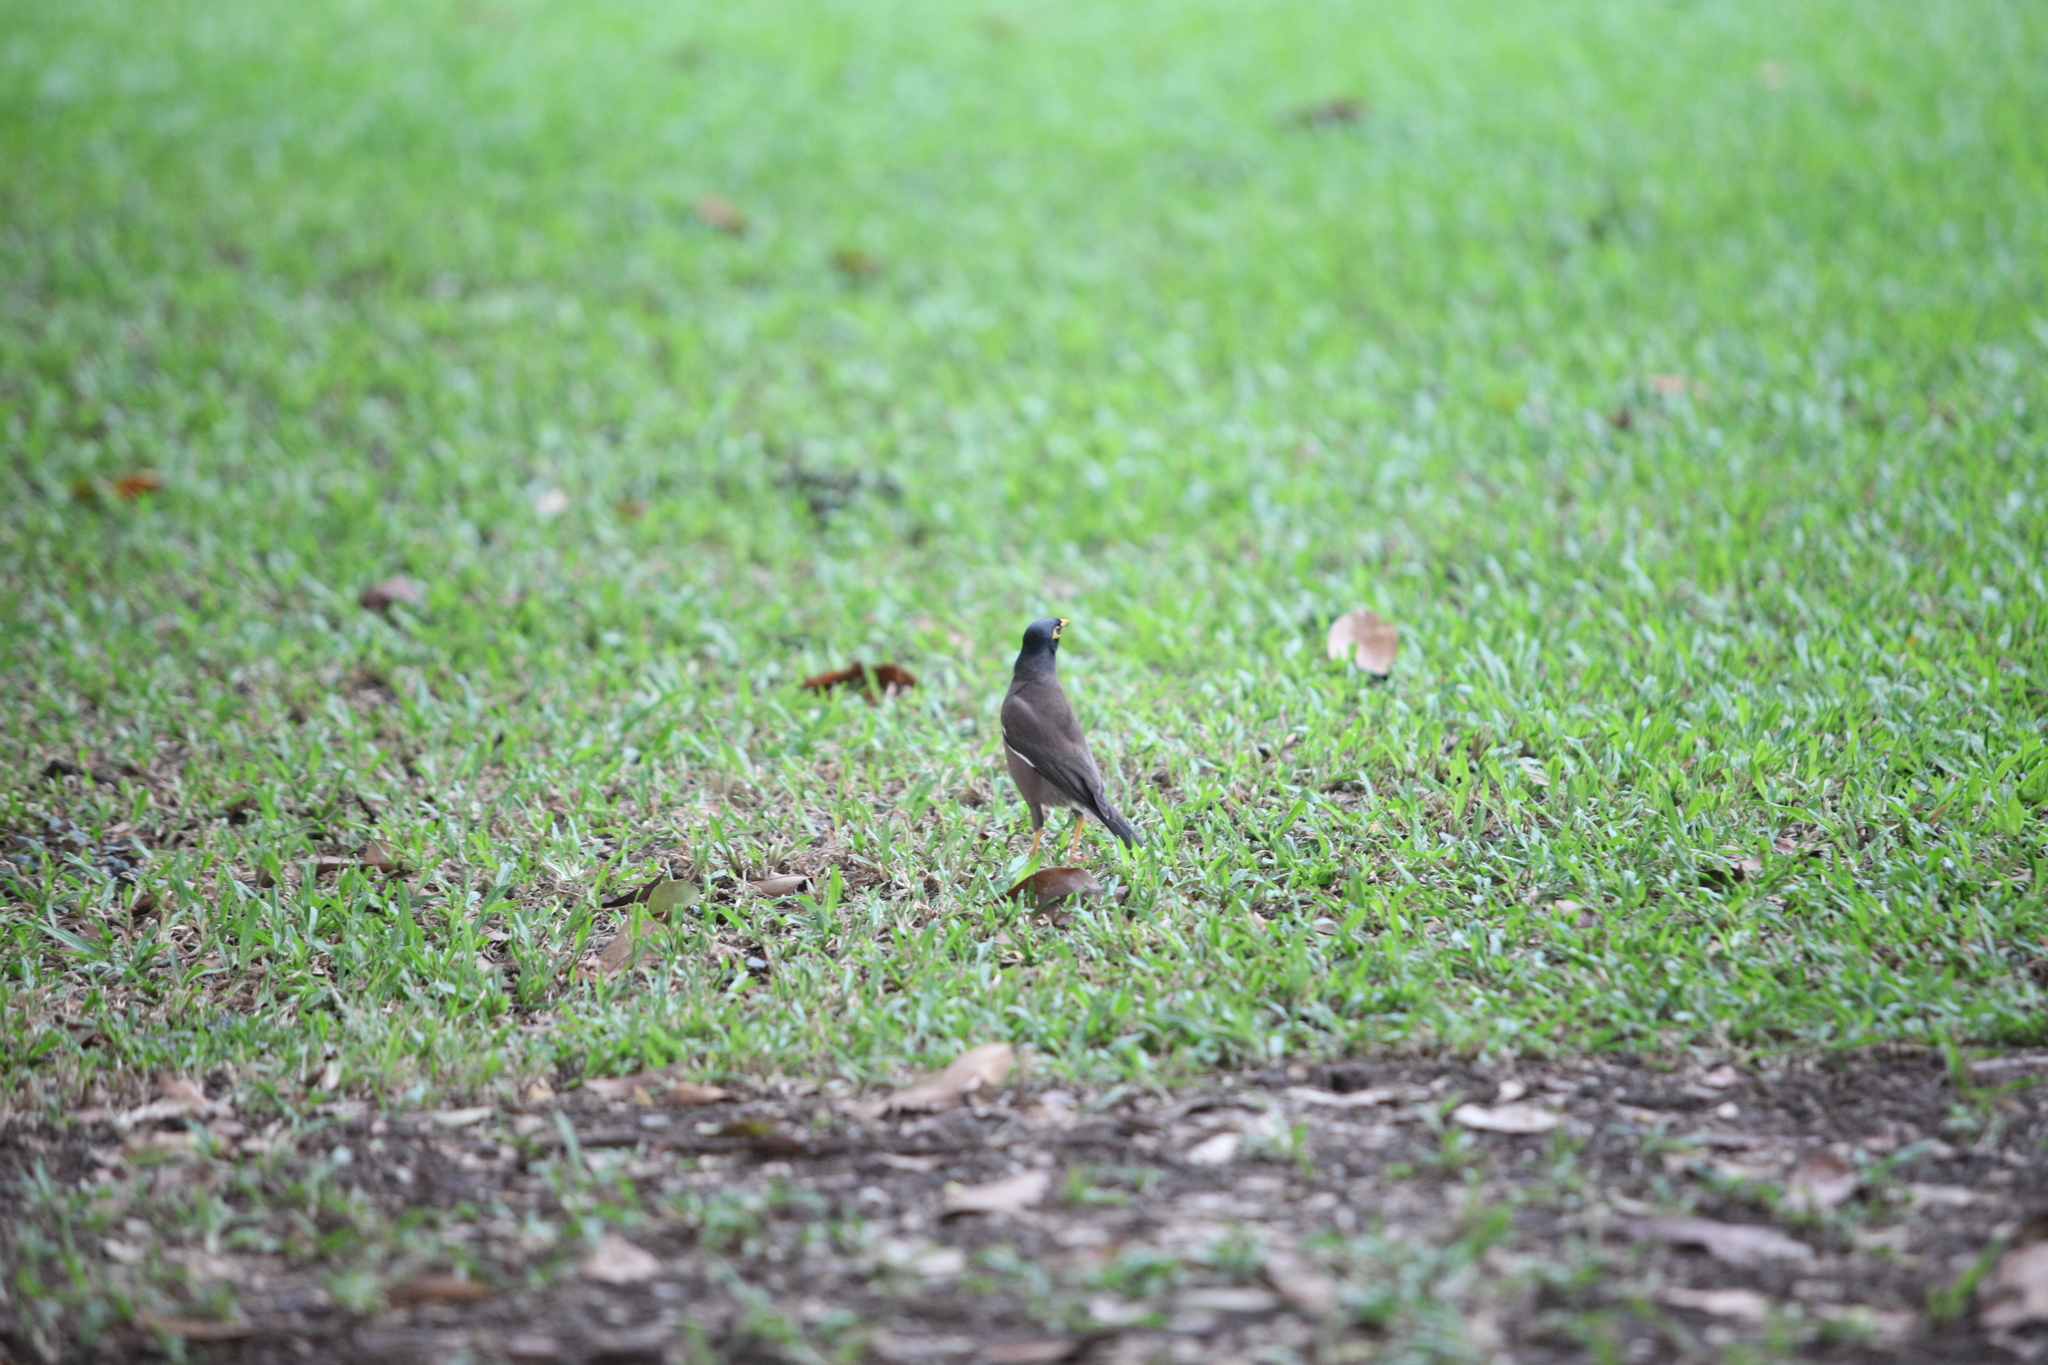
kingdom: Animalia
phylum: Chordata
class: Aves
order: Passeriformes
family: Sturnidae
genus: Acridotheres
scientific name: Acridotheres tristis
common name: Common myna
